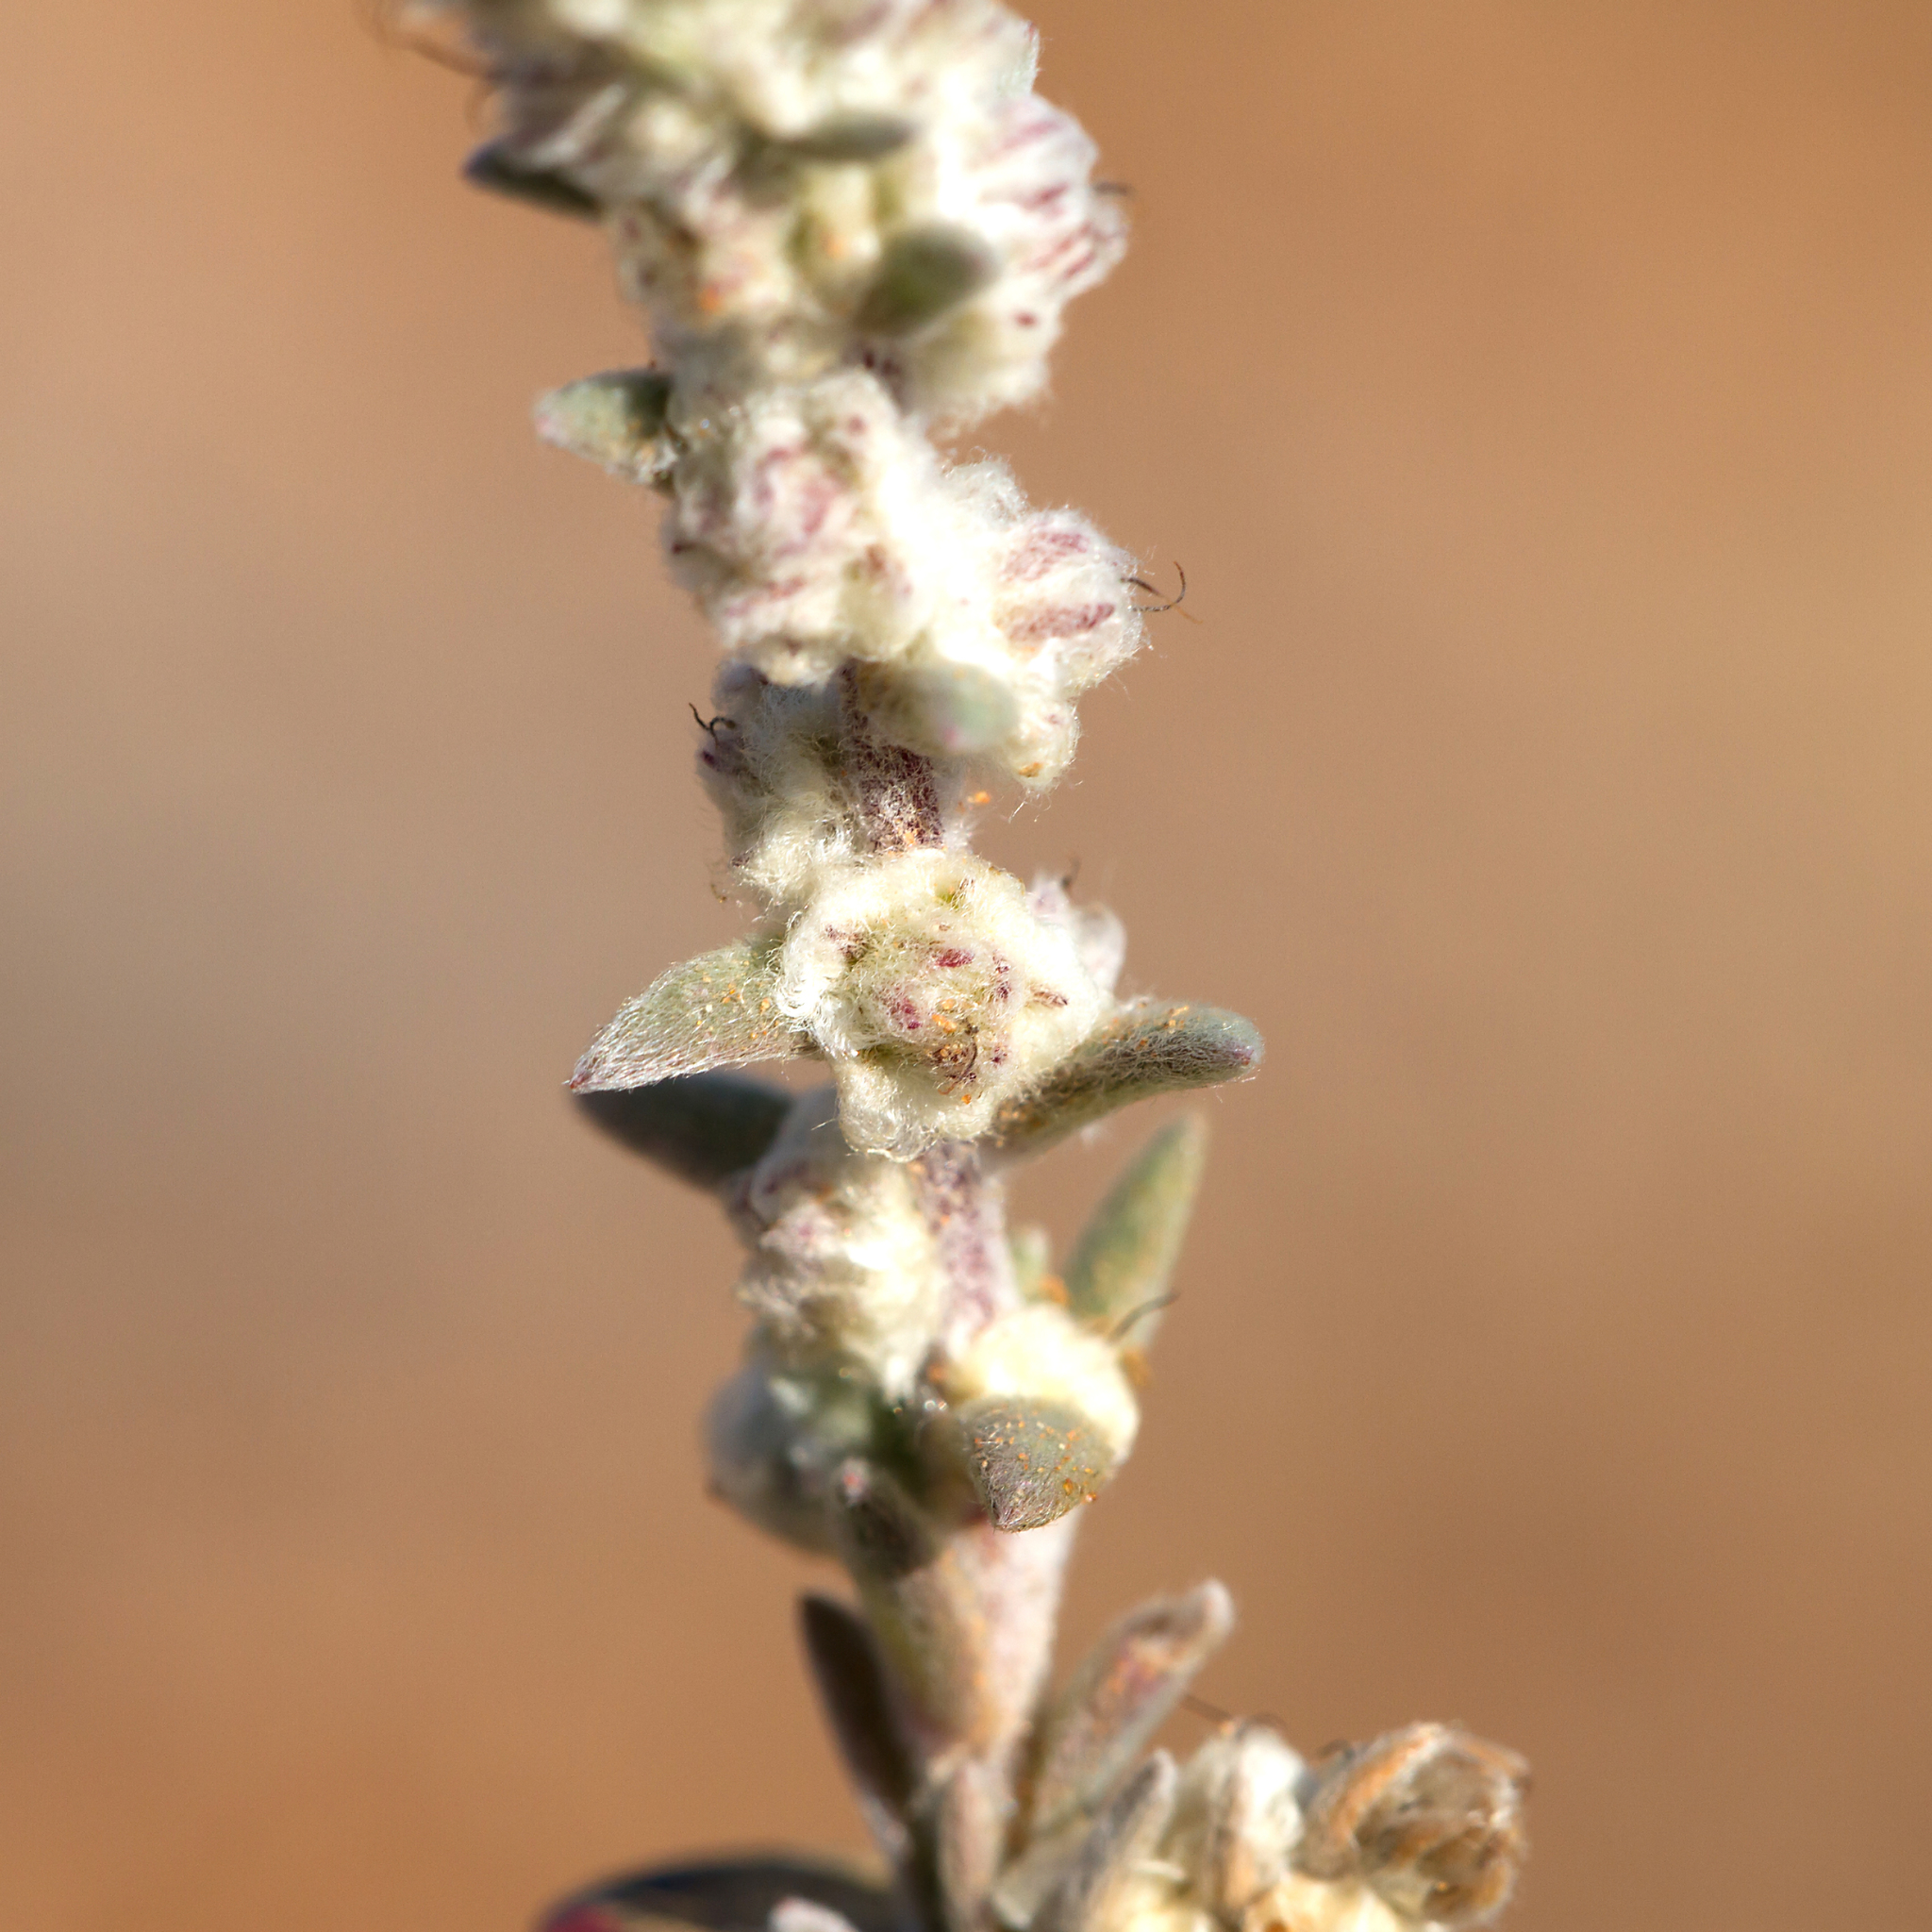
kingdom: Plantae
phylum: Tracheophyta
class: Magnoliopsida
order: Caryophyllales
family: Amaranthaceae
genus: Maireana
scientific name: Maireana sclerolaenoides
